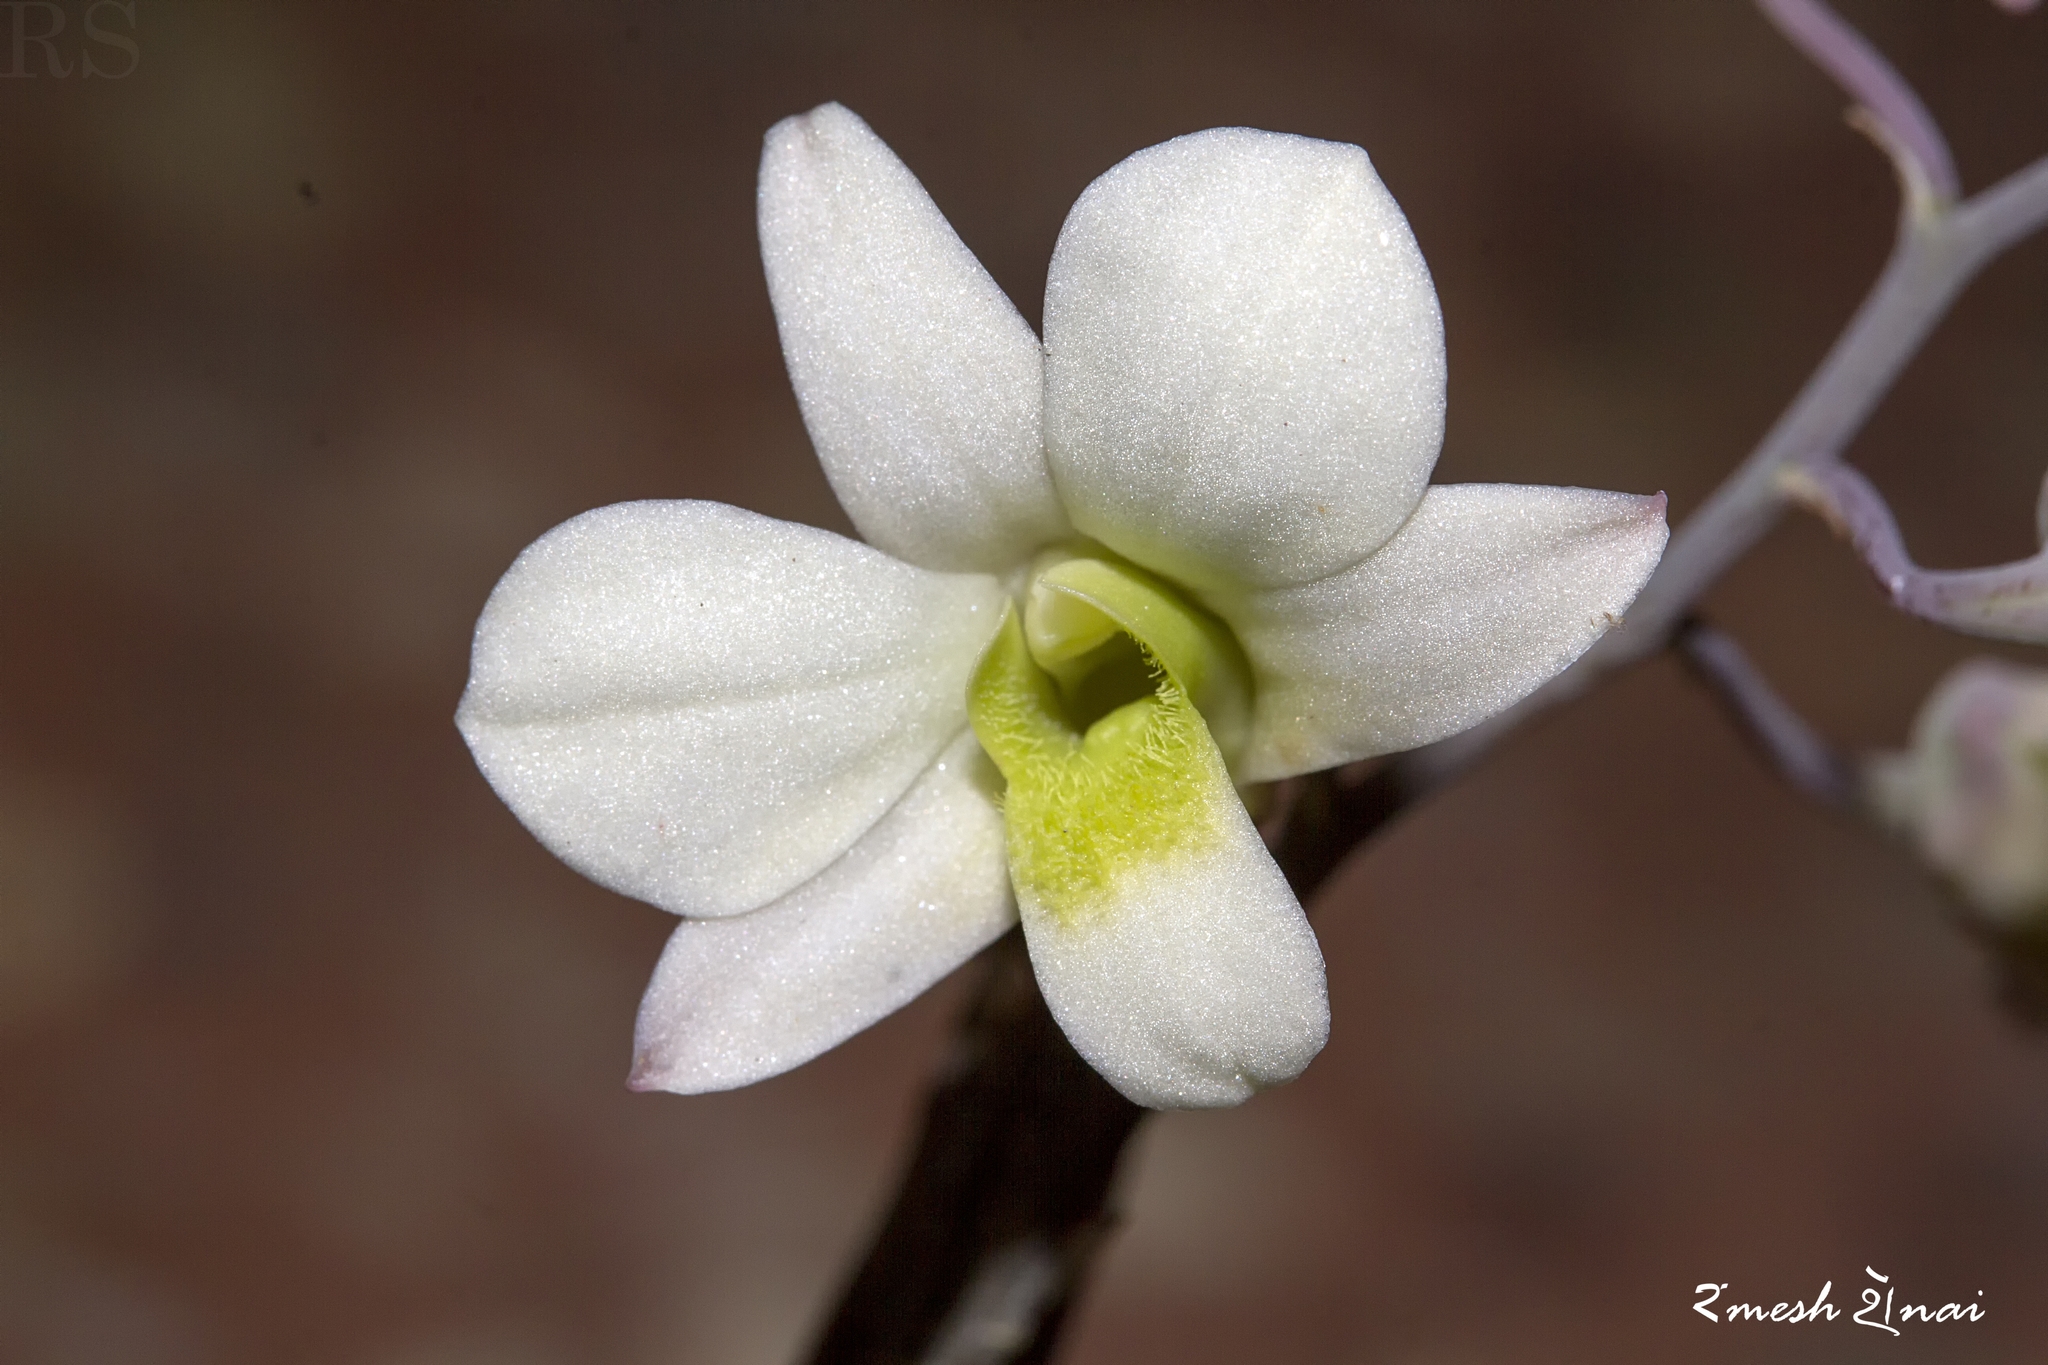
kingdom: Plantae
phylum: Tracheophyta
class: Liliopsida
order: Asparagales
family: Orchidaceae
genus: Dendrobium
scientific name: Dendrobium ovatum
